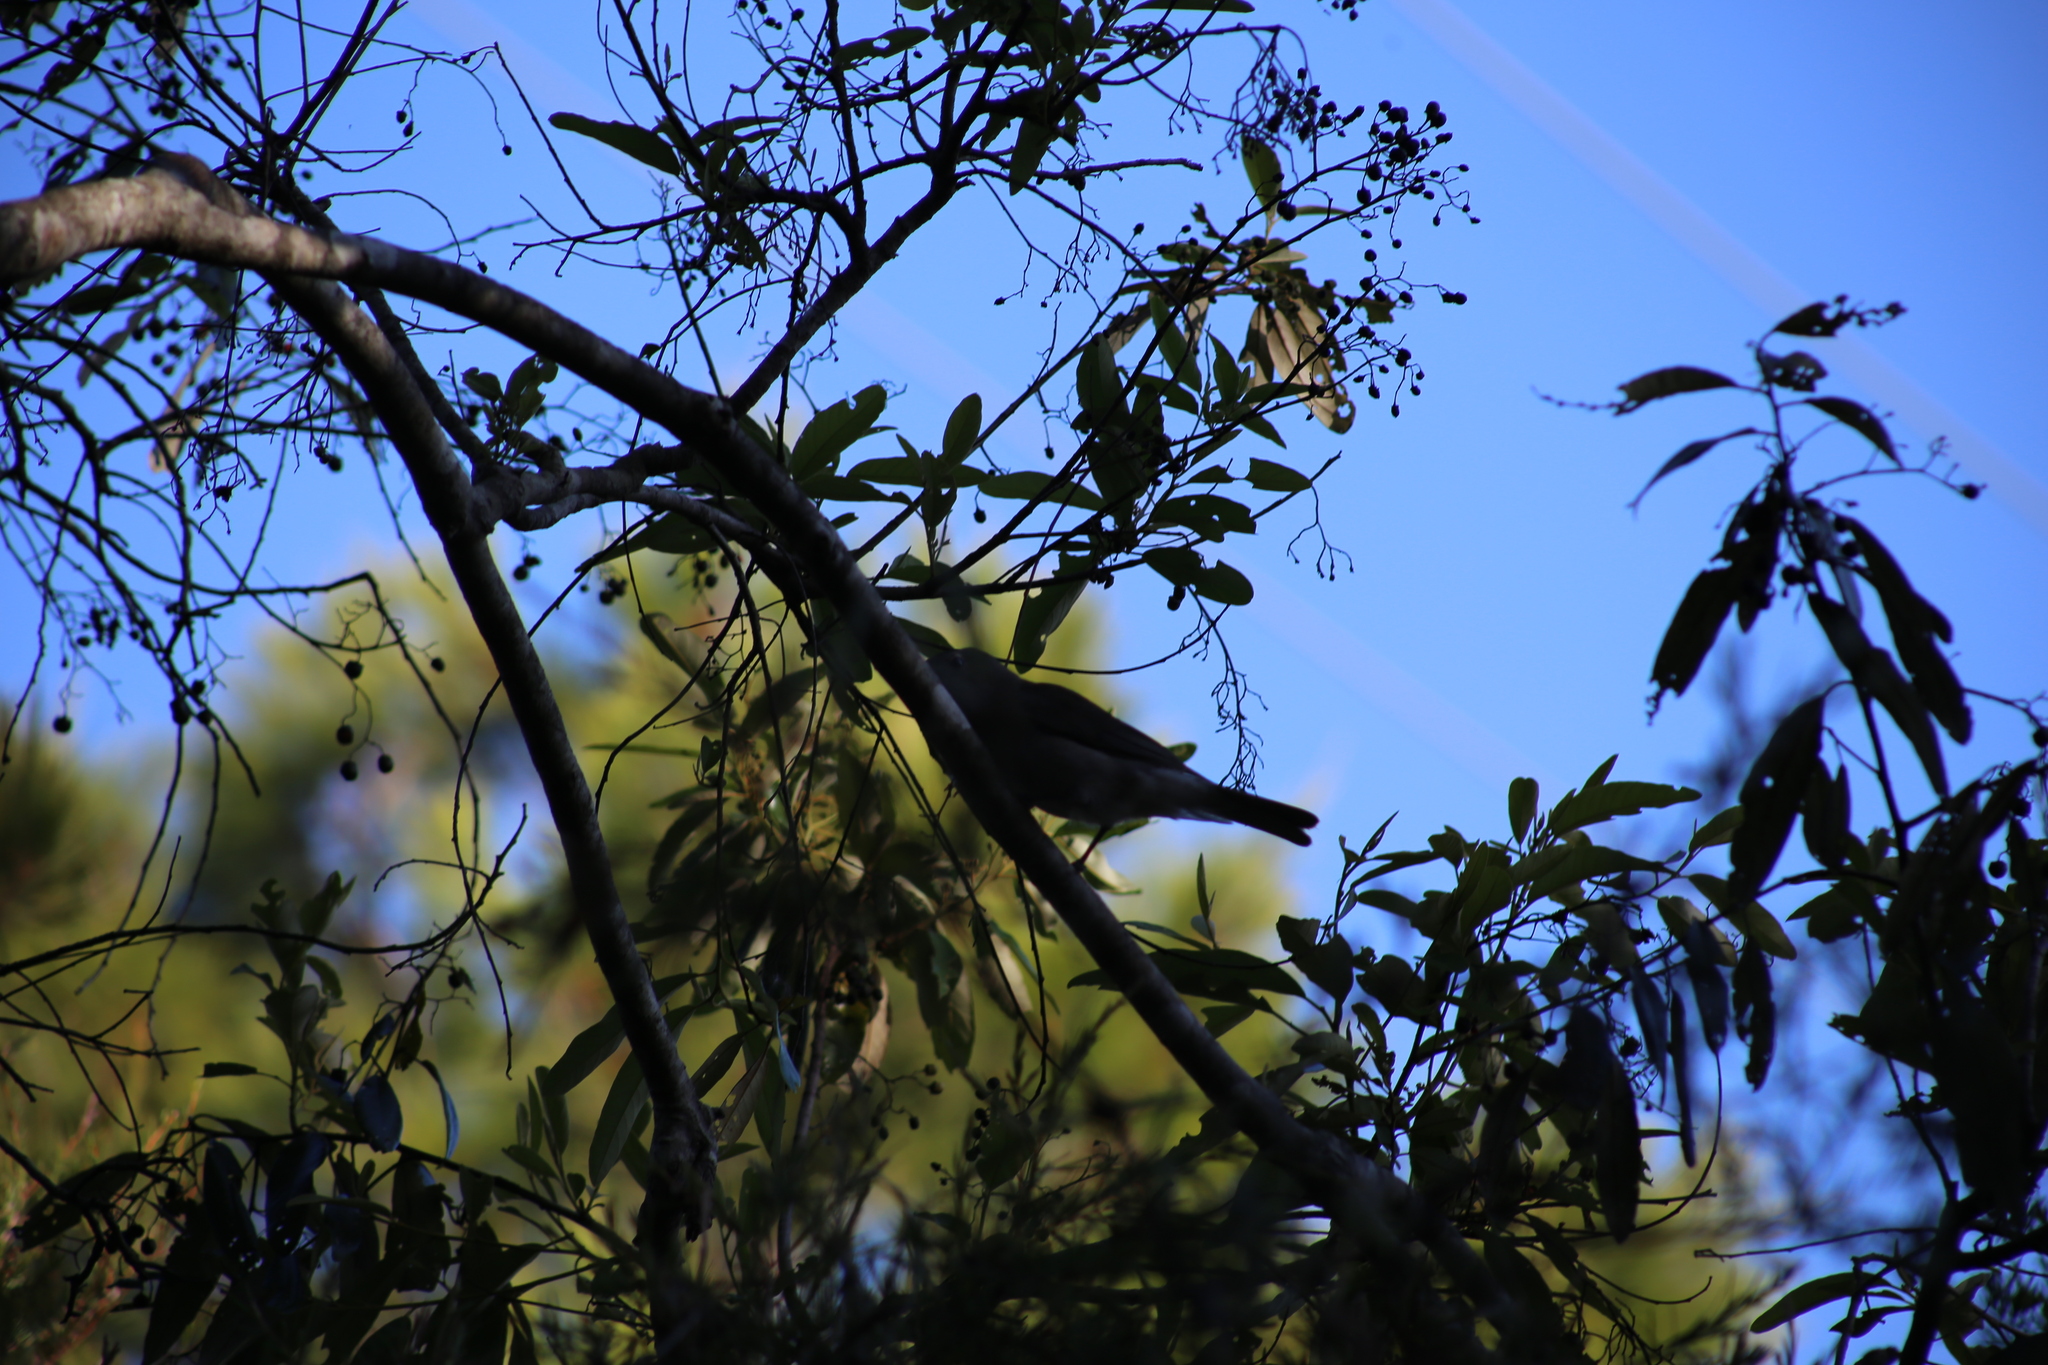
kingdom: Animalia
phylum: Chordata
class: Aves
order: Passeriformes
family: Pachycephalidae
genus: Colluricincla
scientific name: Colluricincla harmonica
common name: Grey shrikethrush
